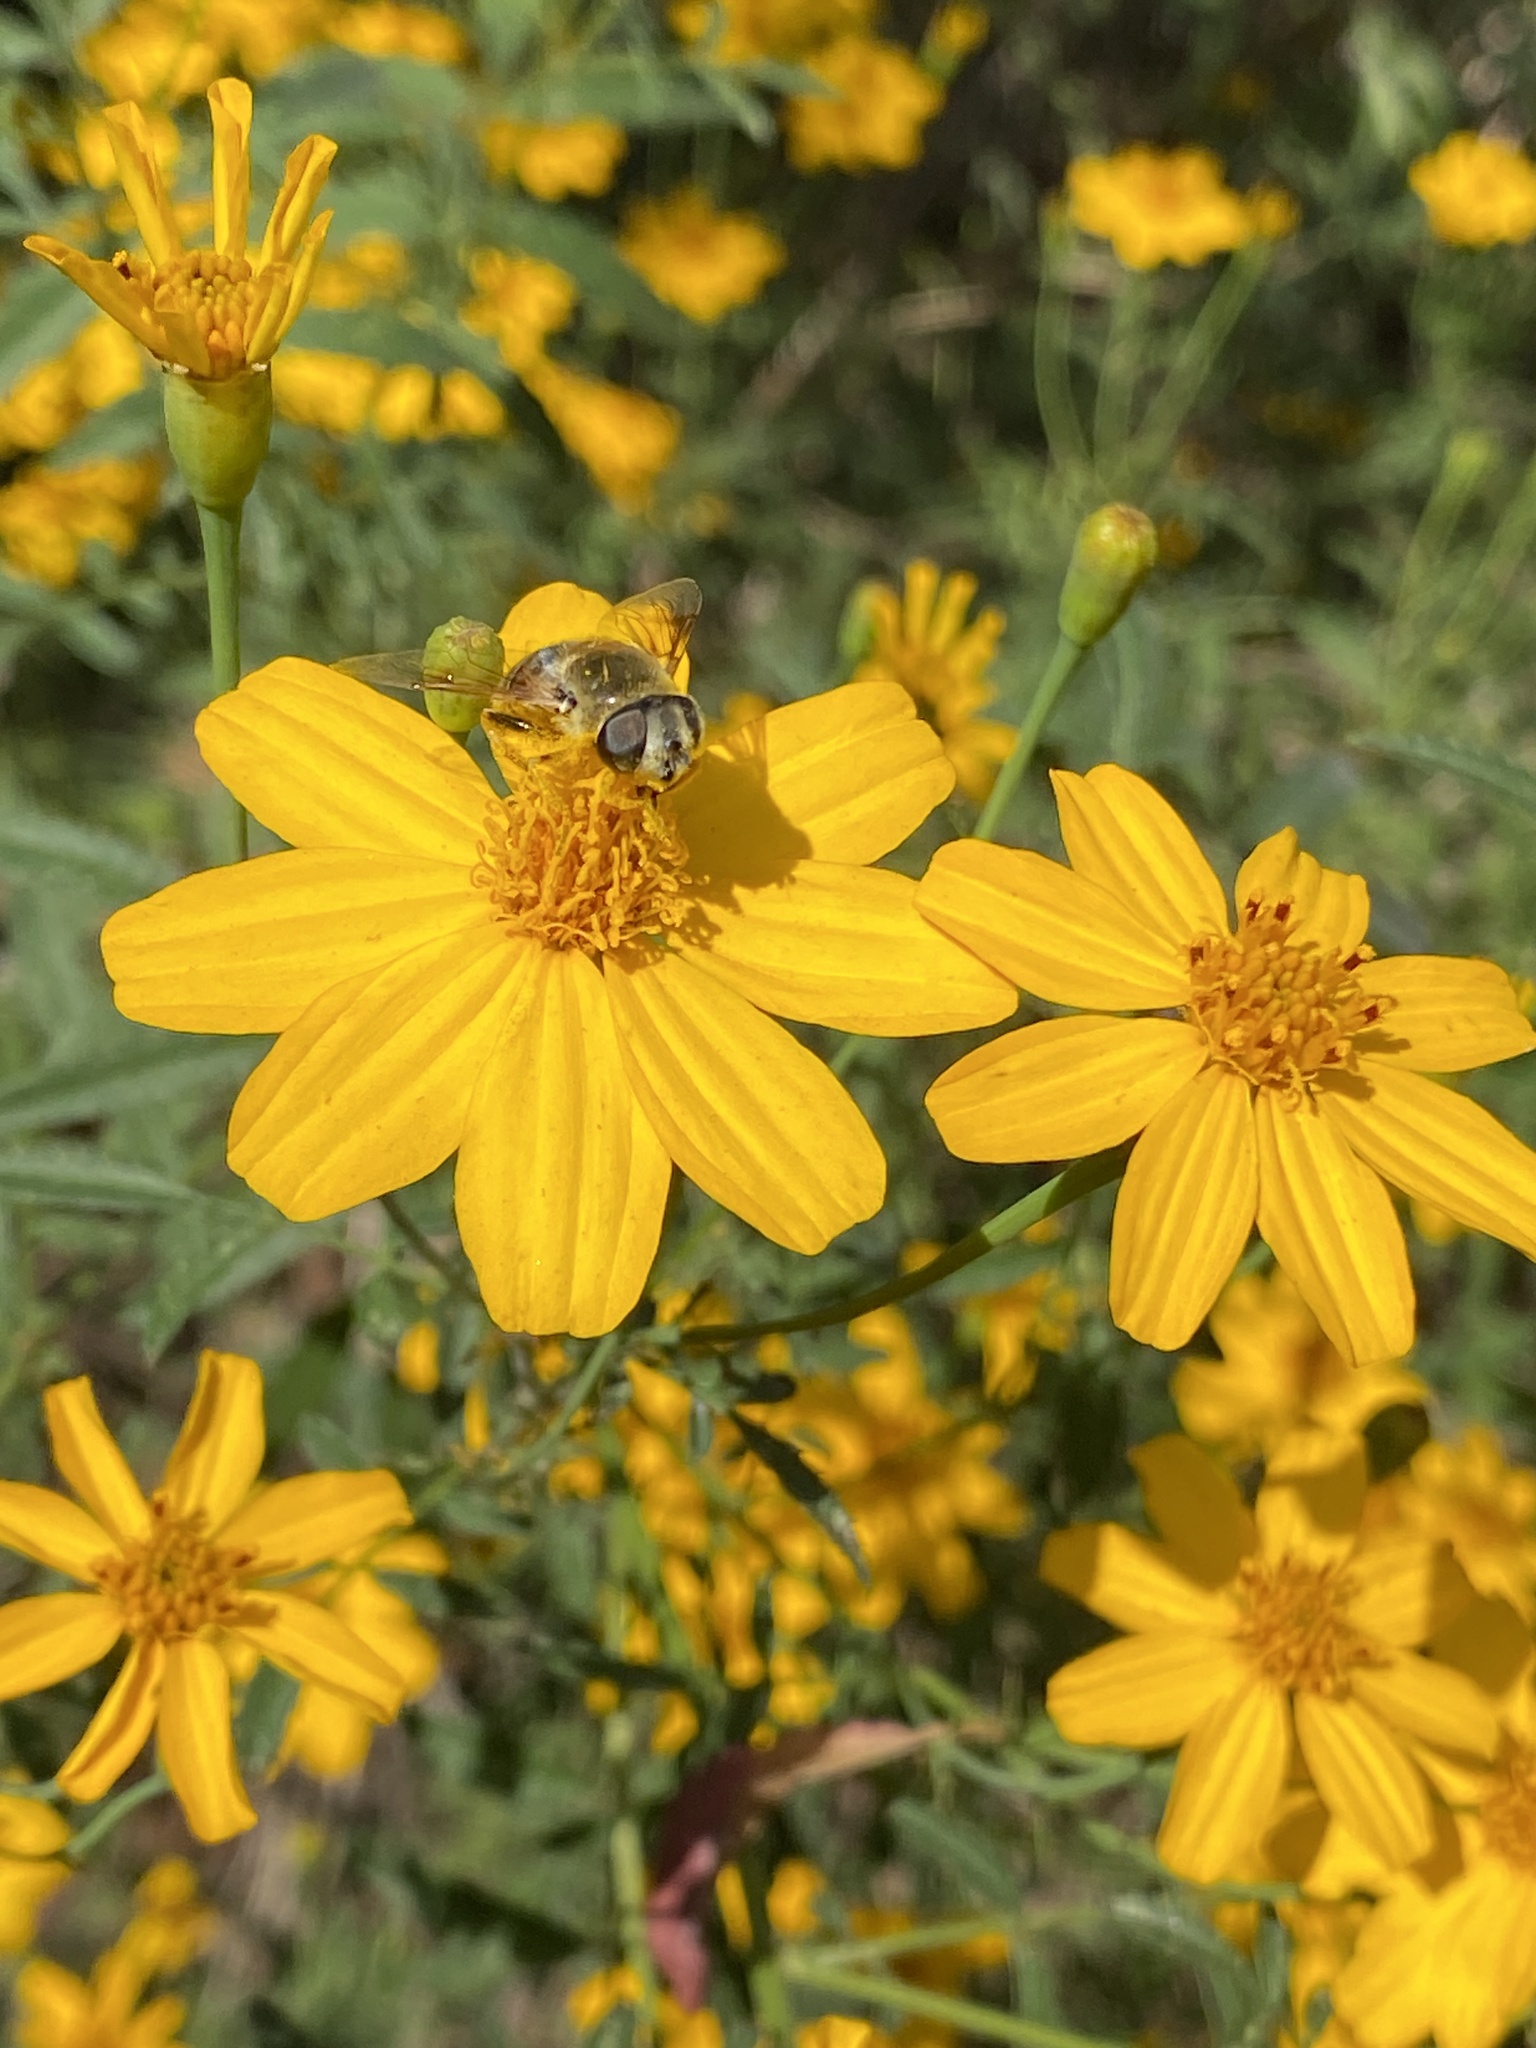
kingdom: Animalia
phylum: Arthropoda
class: Insecta
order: Diptera
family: Syrphidae
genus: Eristalis
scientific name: Eristalis stipator
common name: Yellow-shouldered drone fly
